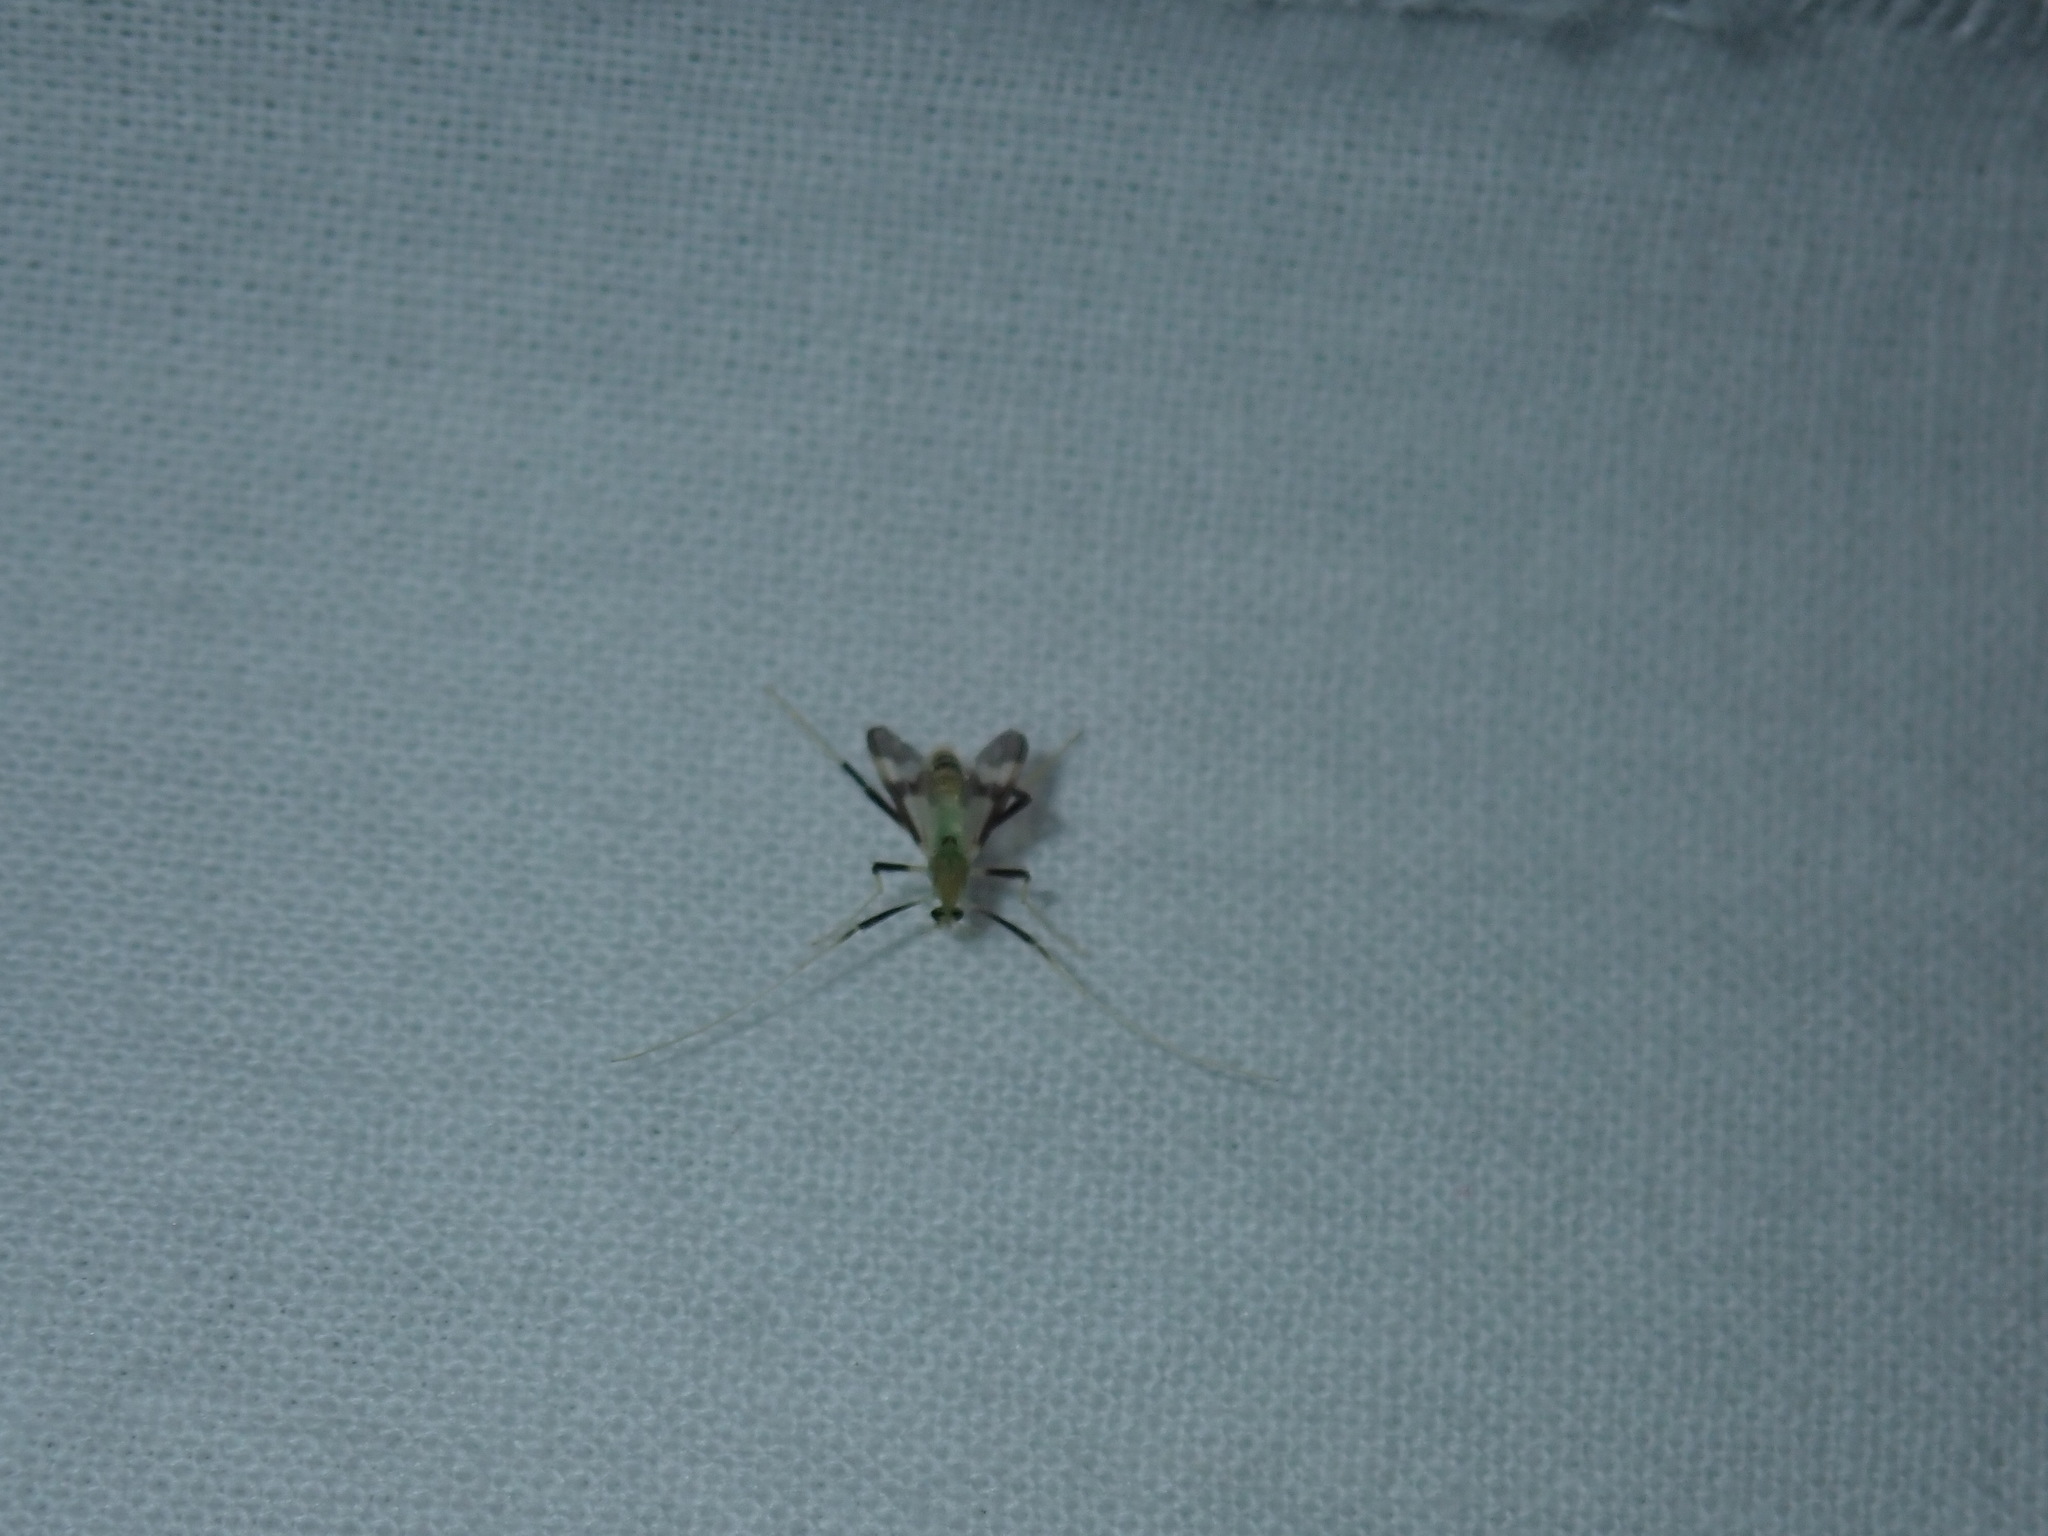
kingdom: Animalia
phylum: Arthropoda
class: Insecta
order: Diptera
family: Chironomidae
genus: Stenochironomus
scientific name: Stenochironomus hilaris
